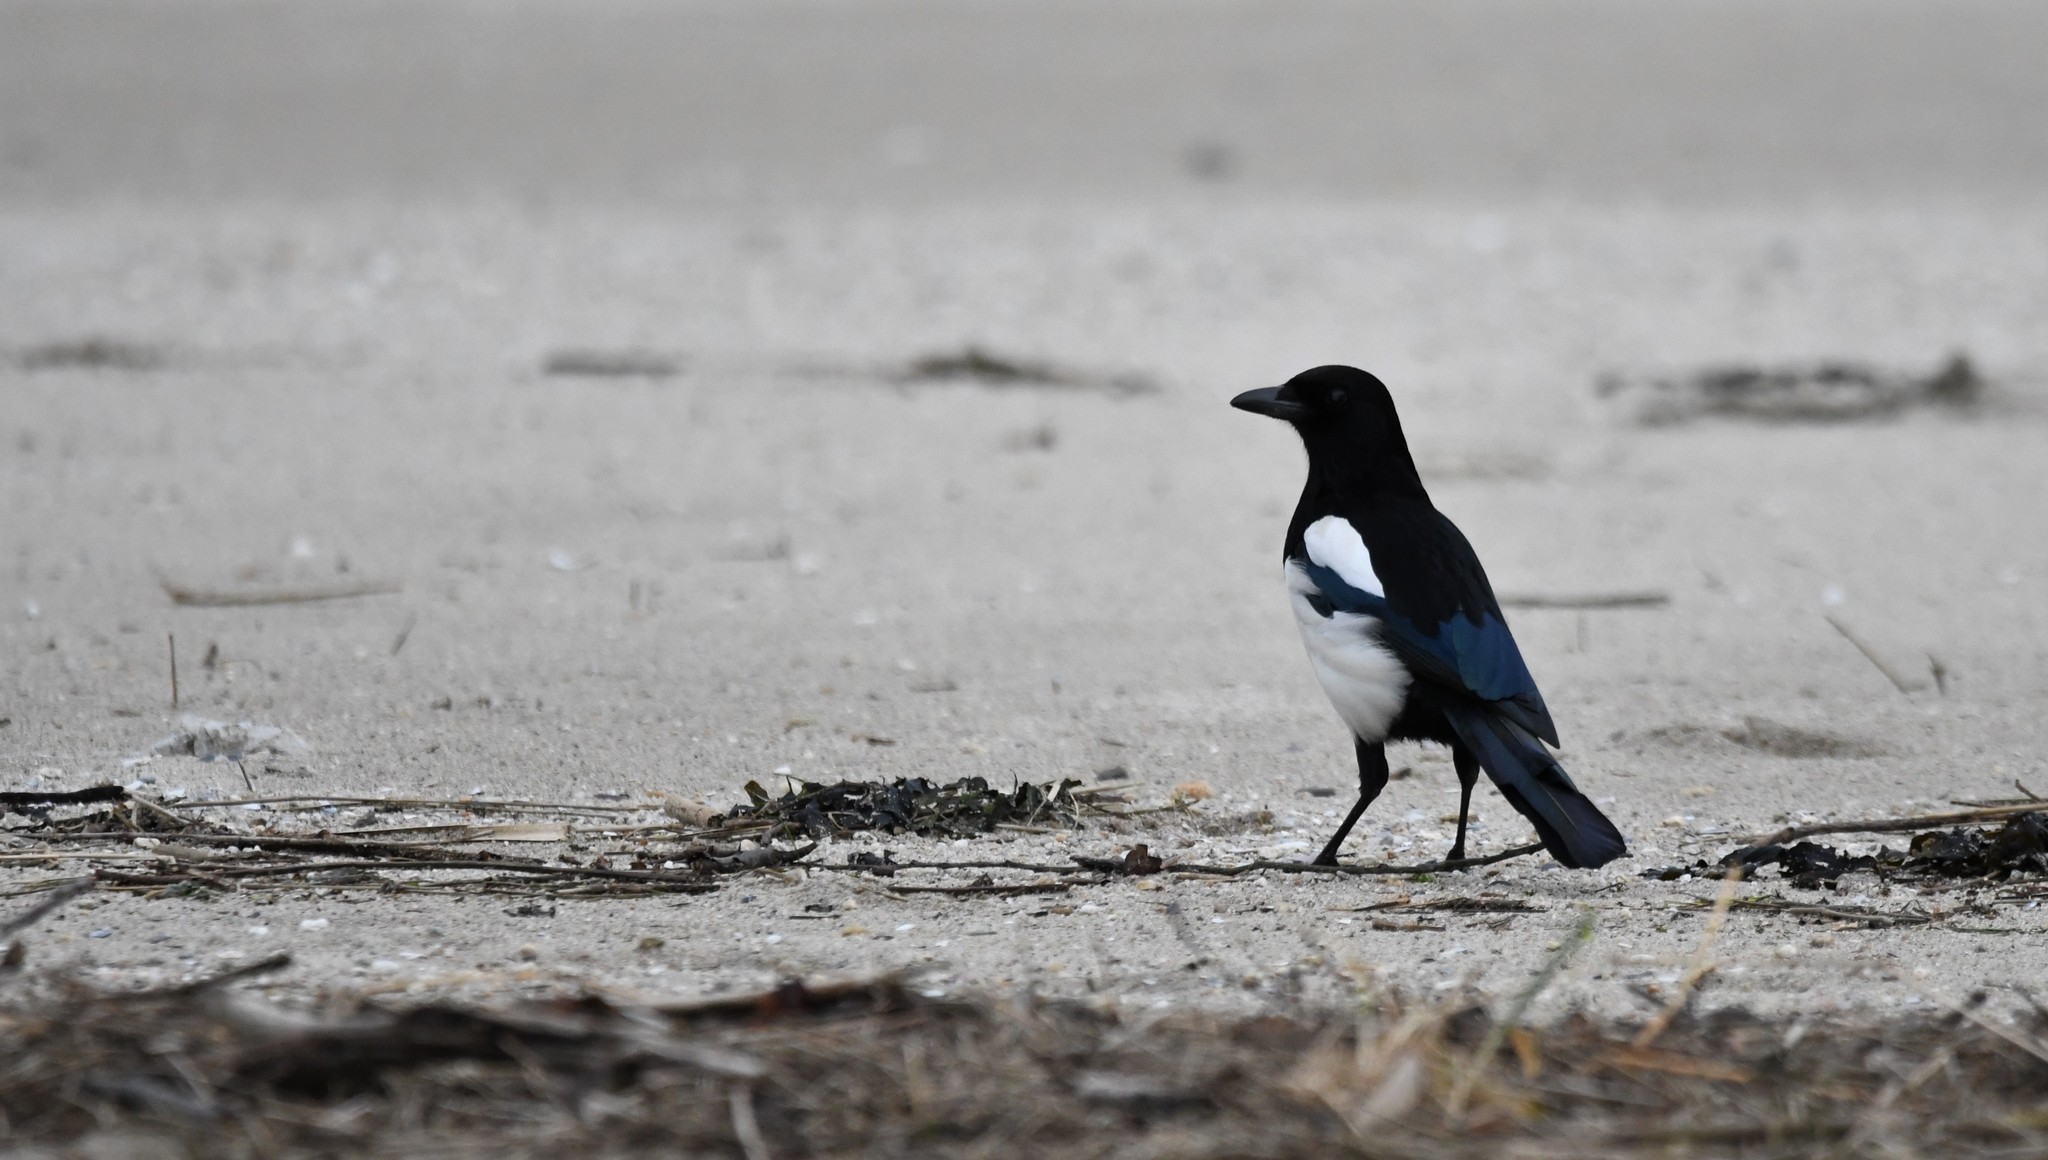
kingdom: Animalia
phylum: Chordata
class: Aves
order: Passeriformes
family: Corvidae
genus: Pica
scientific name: Pica pica
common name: Eurasian magpie
